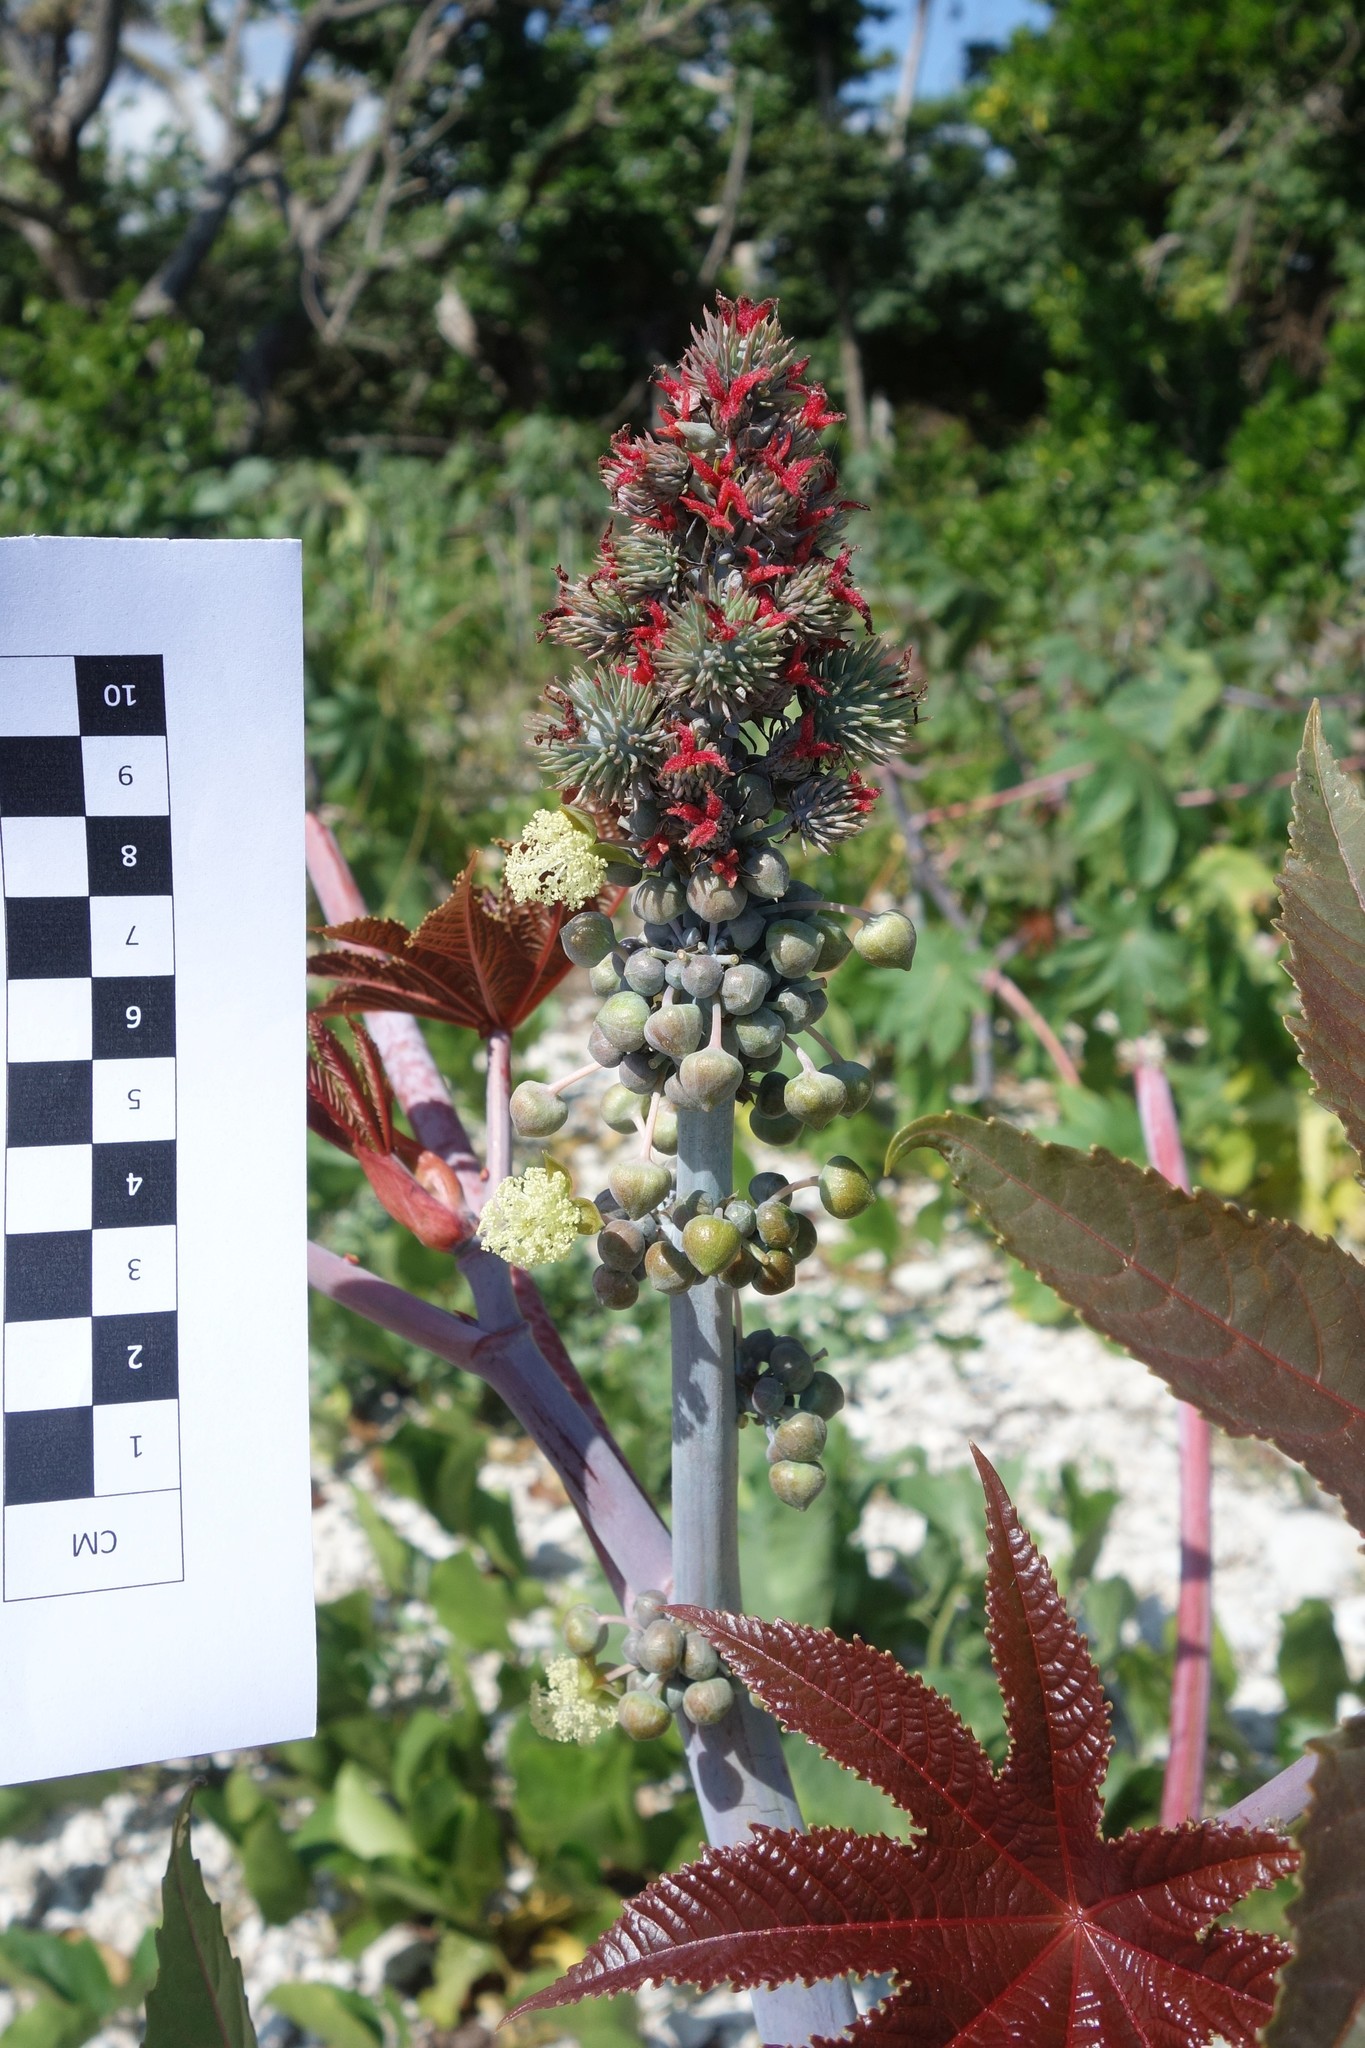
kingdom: Plantae
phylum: Tracheophyta
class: Magnoliopsida
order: Malpighiales
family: Euphorbiaceae
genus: Ricinus
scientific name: Ricinus communis
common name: Castor-oil-plant
